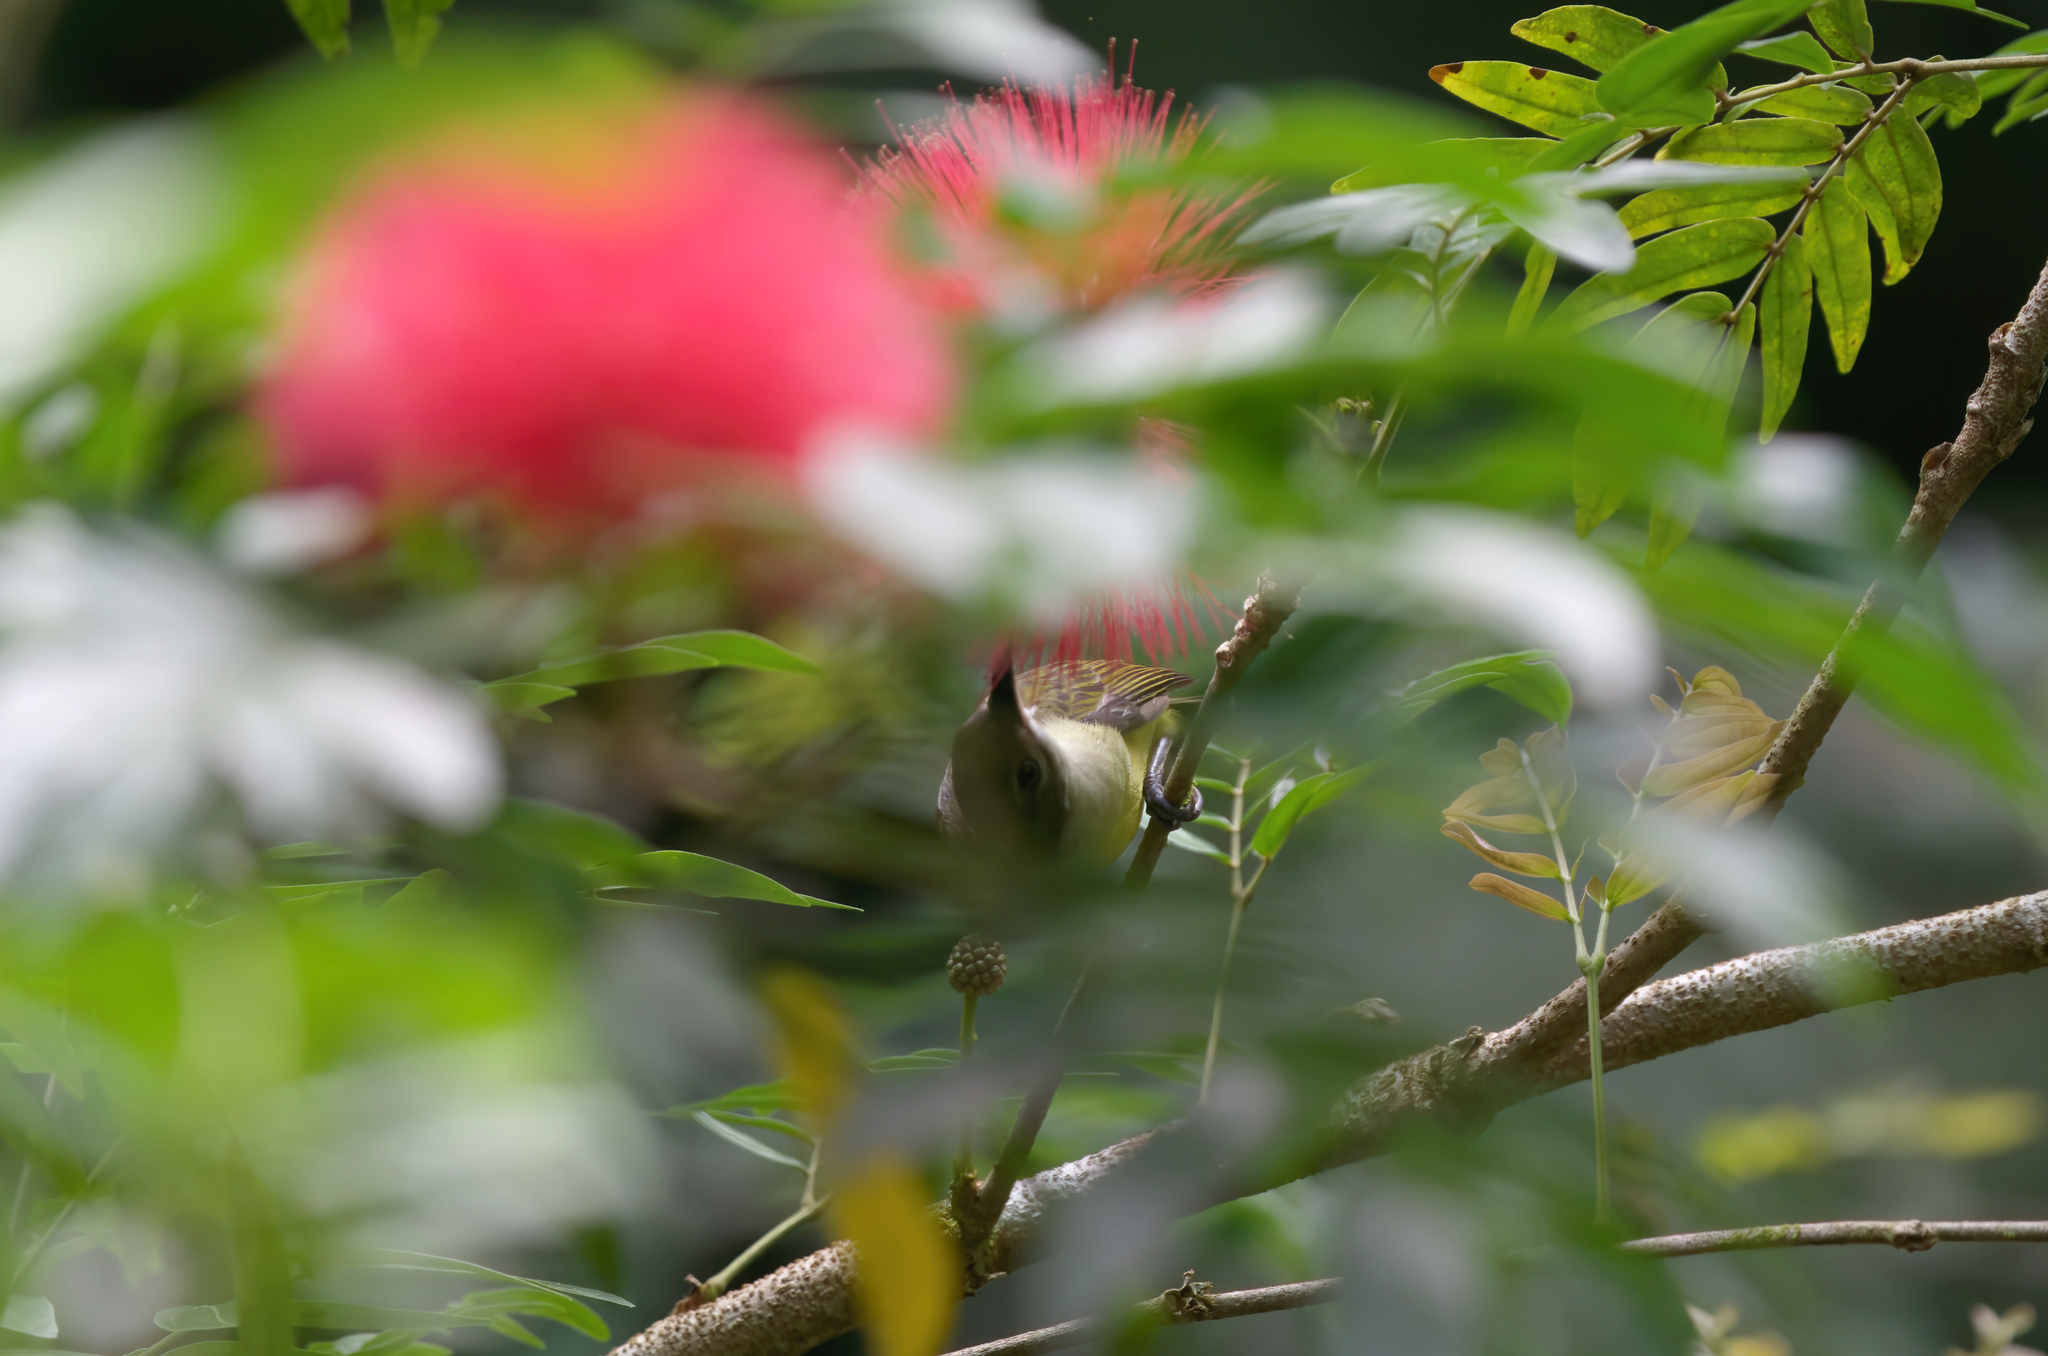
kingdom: Animalia
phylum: Chordata
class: Aves
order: Passeriformes
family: Nectariniidae
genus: Arachnothera
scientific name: Arachnothera longirostra
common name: Little spiderhunter
